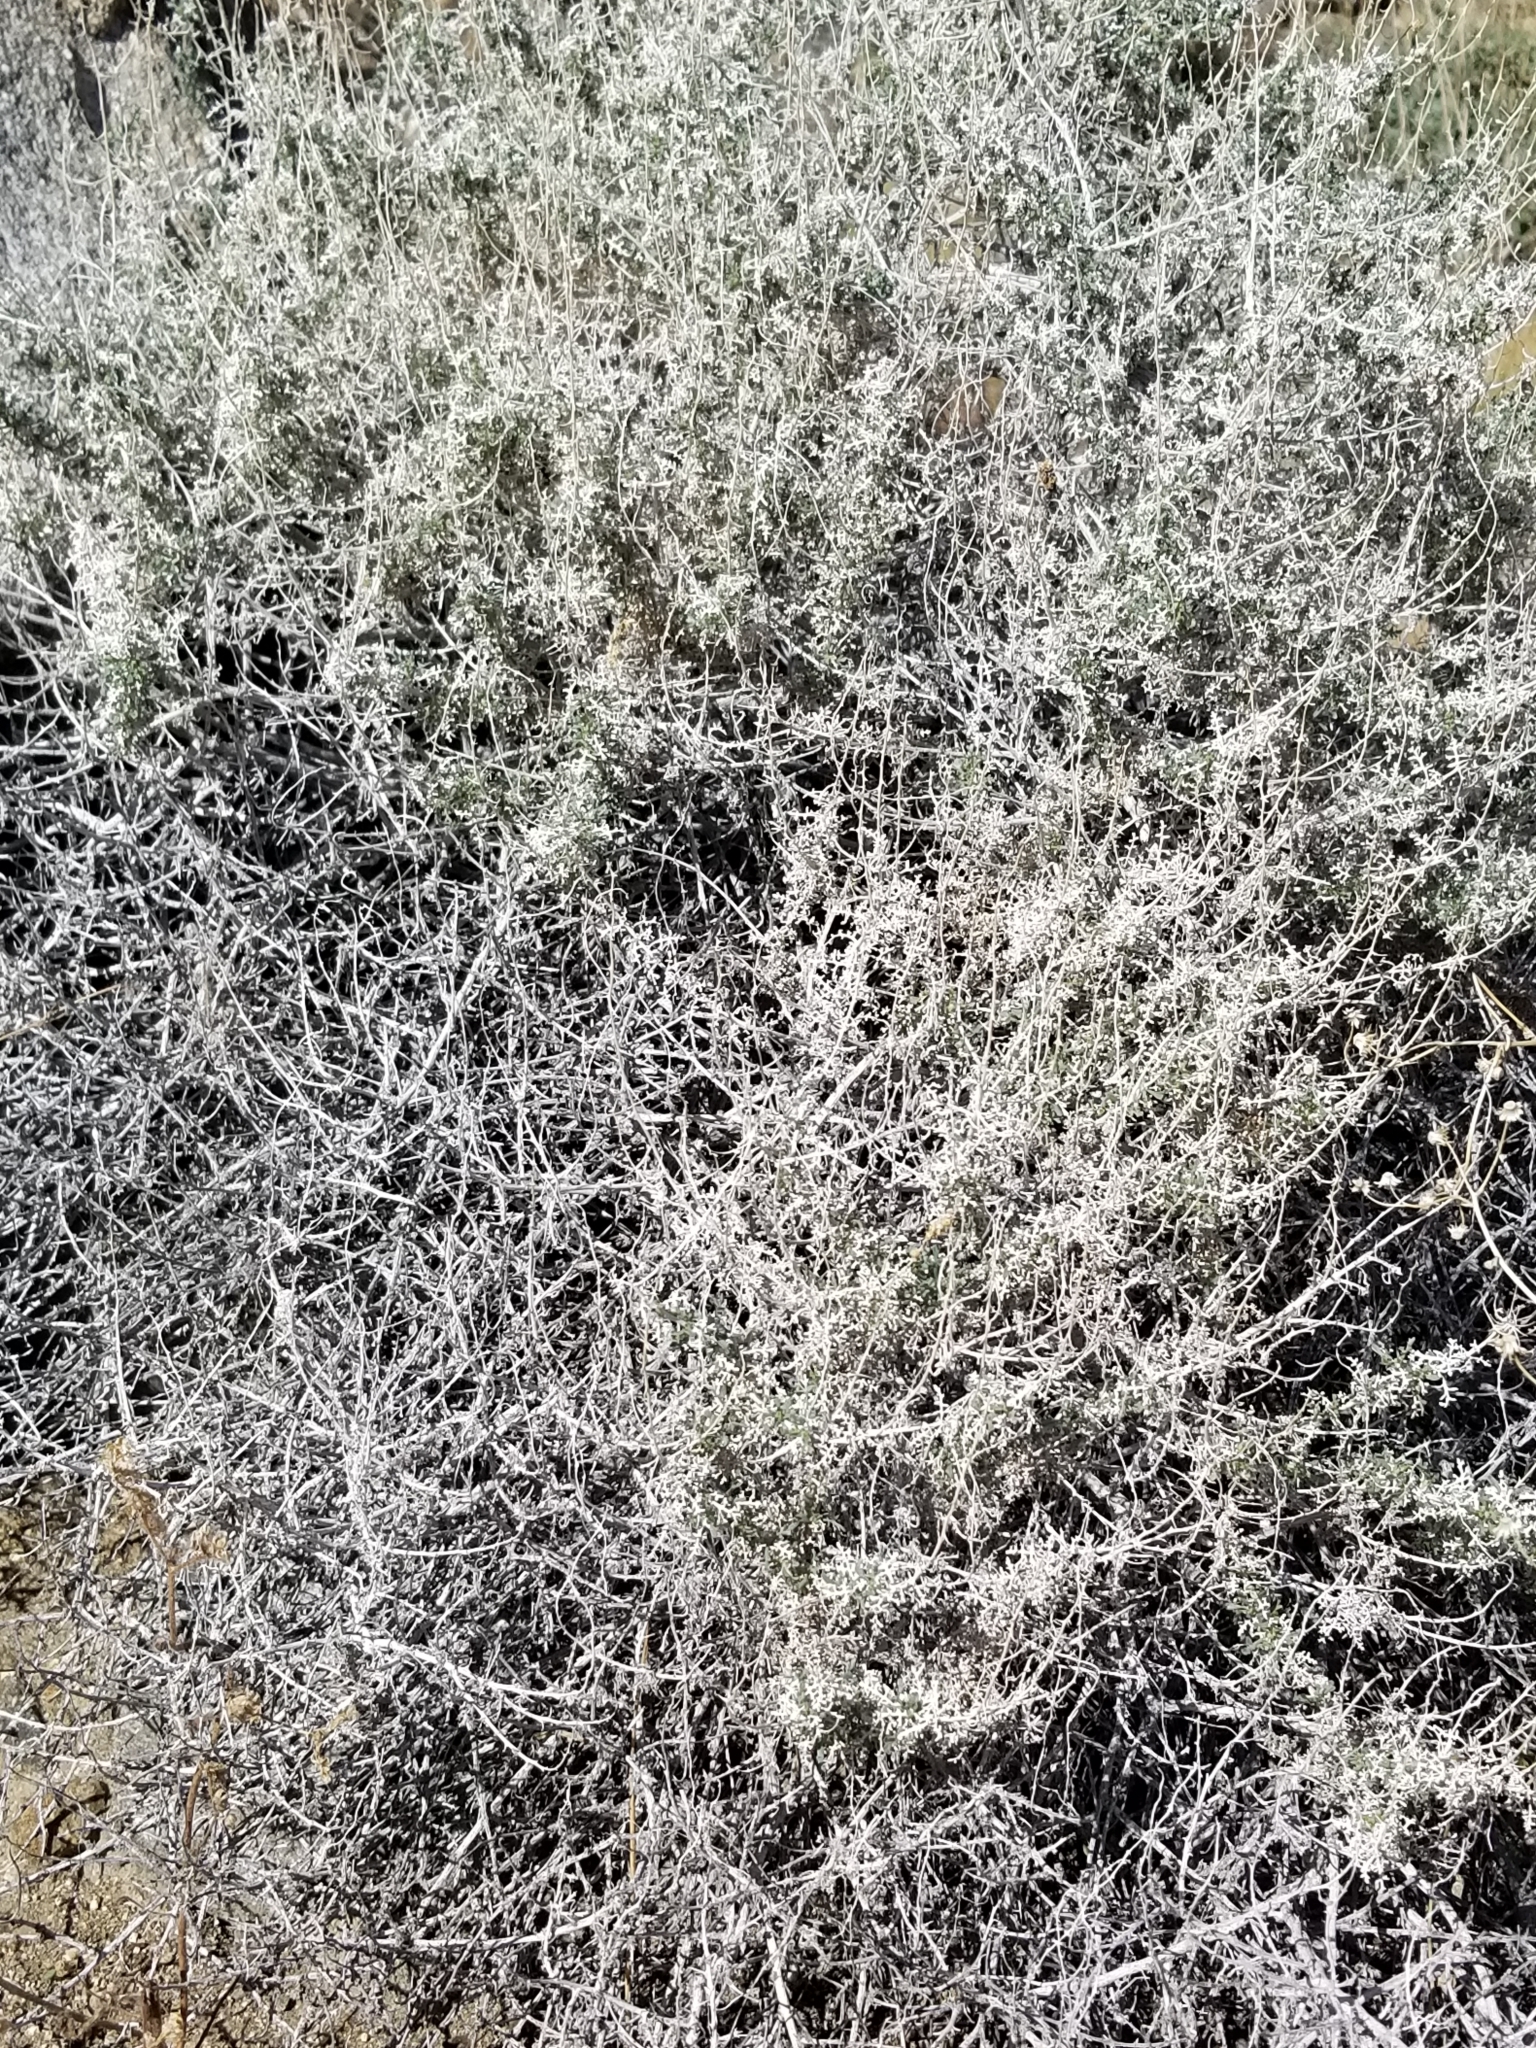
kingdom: Plantae
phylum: Tracheophyta
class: Magnoliopsida
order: Asterales
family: Asteraceae
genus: Ambrosia
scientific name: Ambrosia dumosa
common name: Bur-sage
